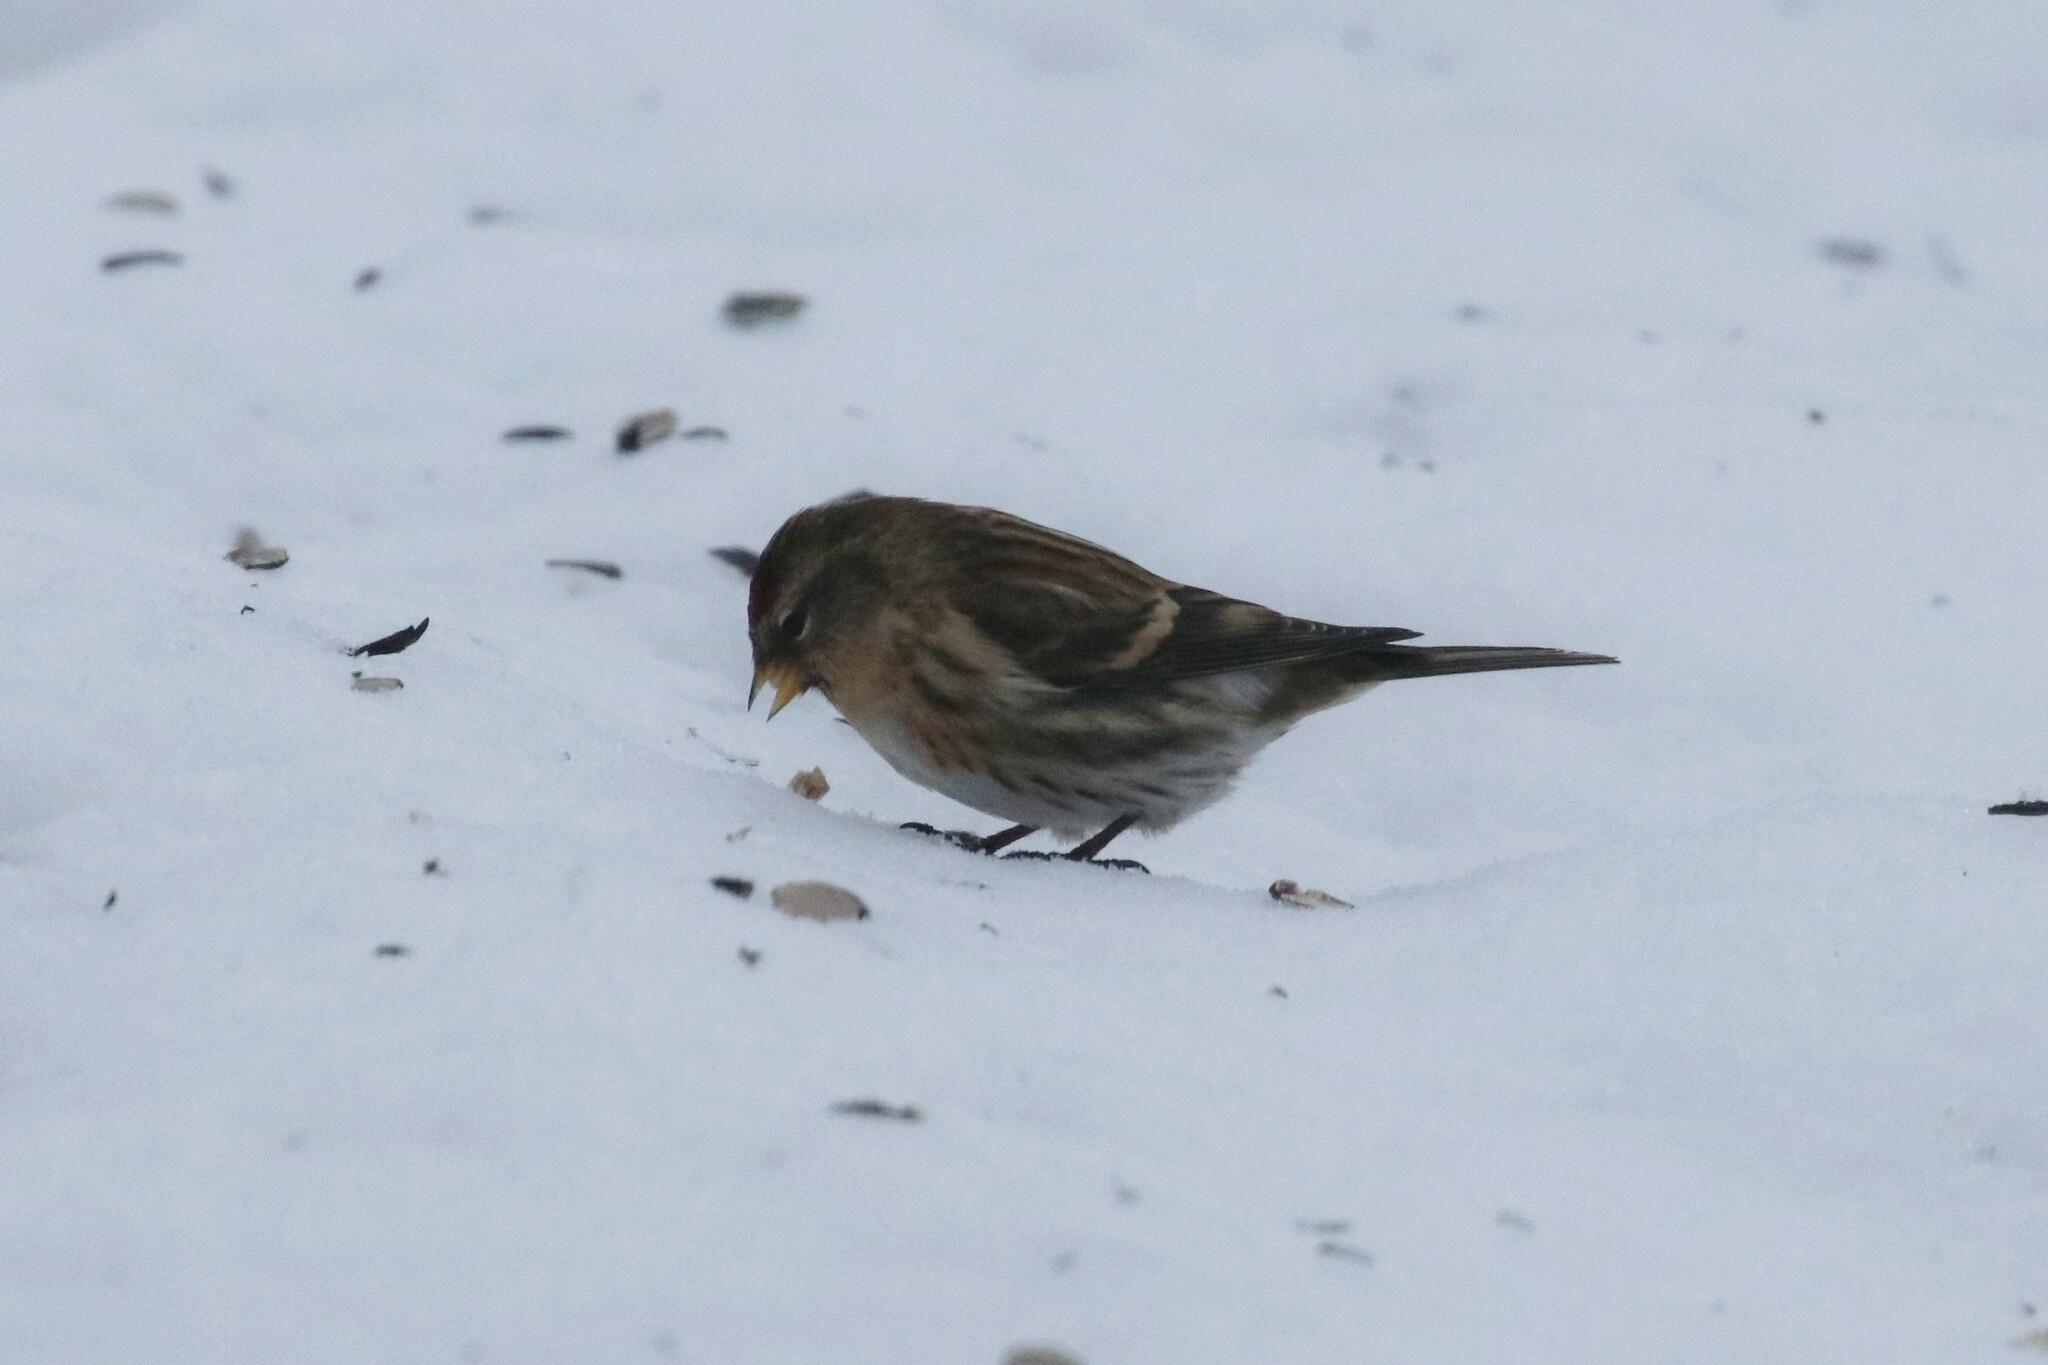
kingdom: Animalia
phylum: Chordata
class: Aves
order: Passeriformes
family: Fringillidae
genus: Acanthis
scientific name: Acanthis flammea
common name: Common redpoll
